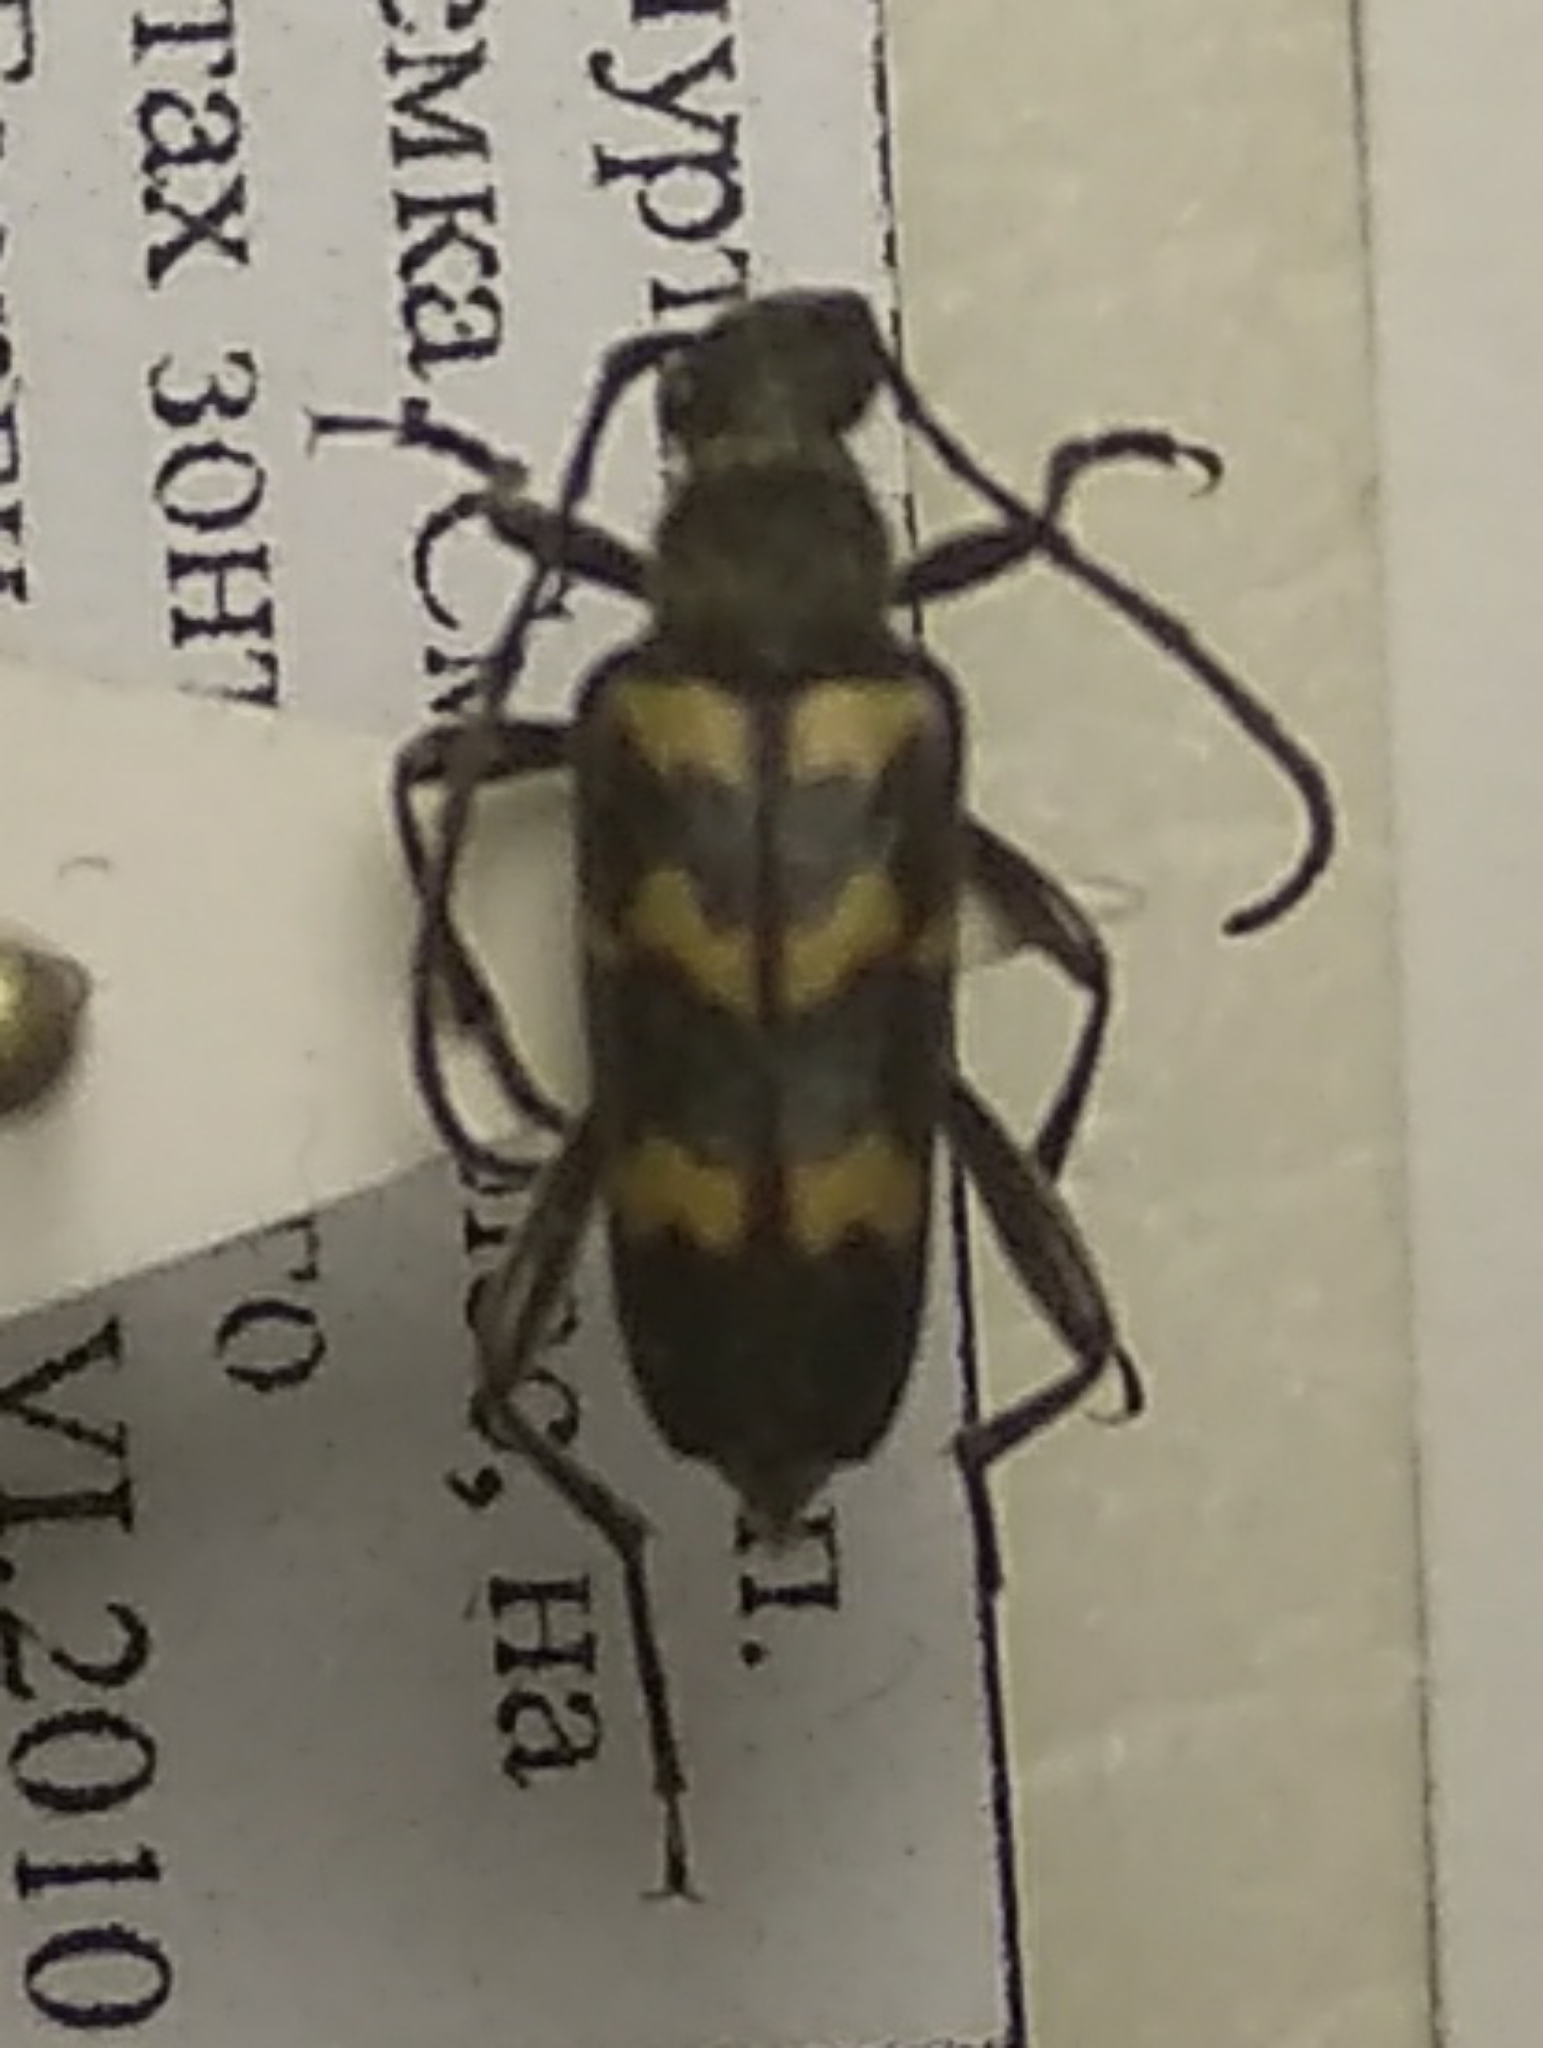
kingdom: Animalia
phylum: Arthropoda
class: Insecta
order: Coleoptera
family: Cerambycidae
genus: Judolia
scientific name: Judolia sexmaculata
